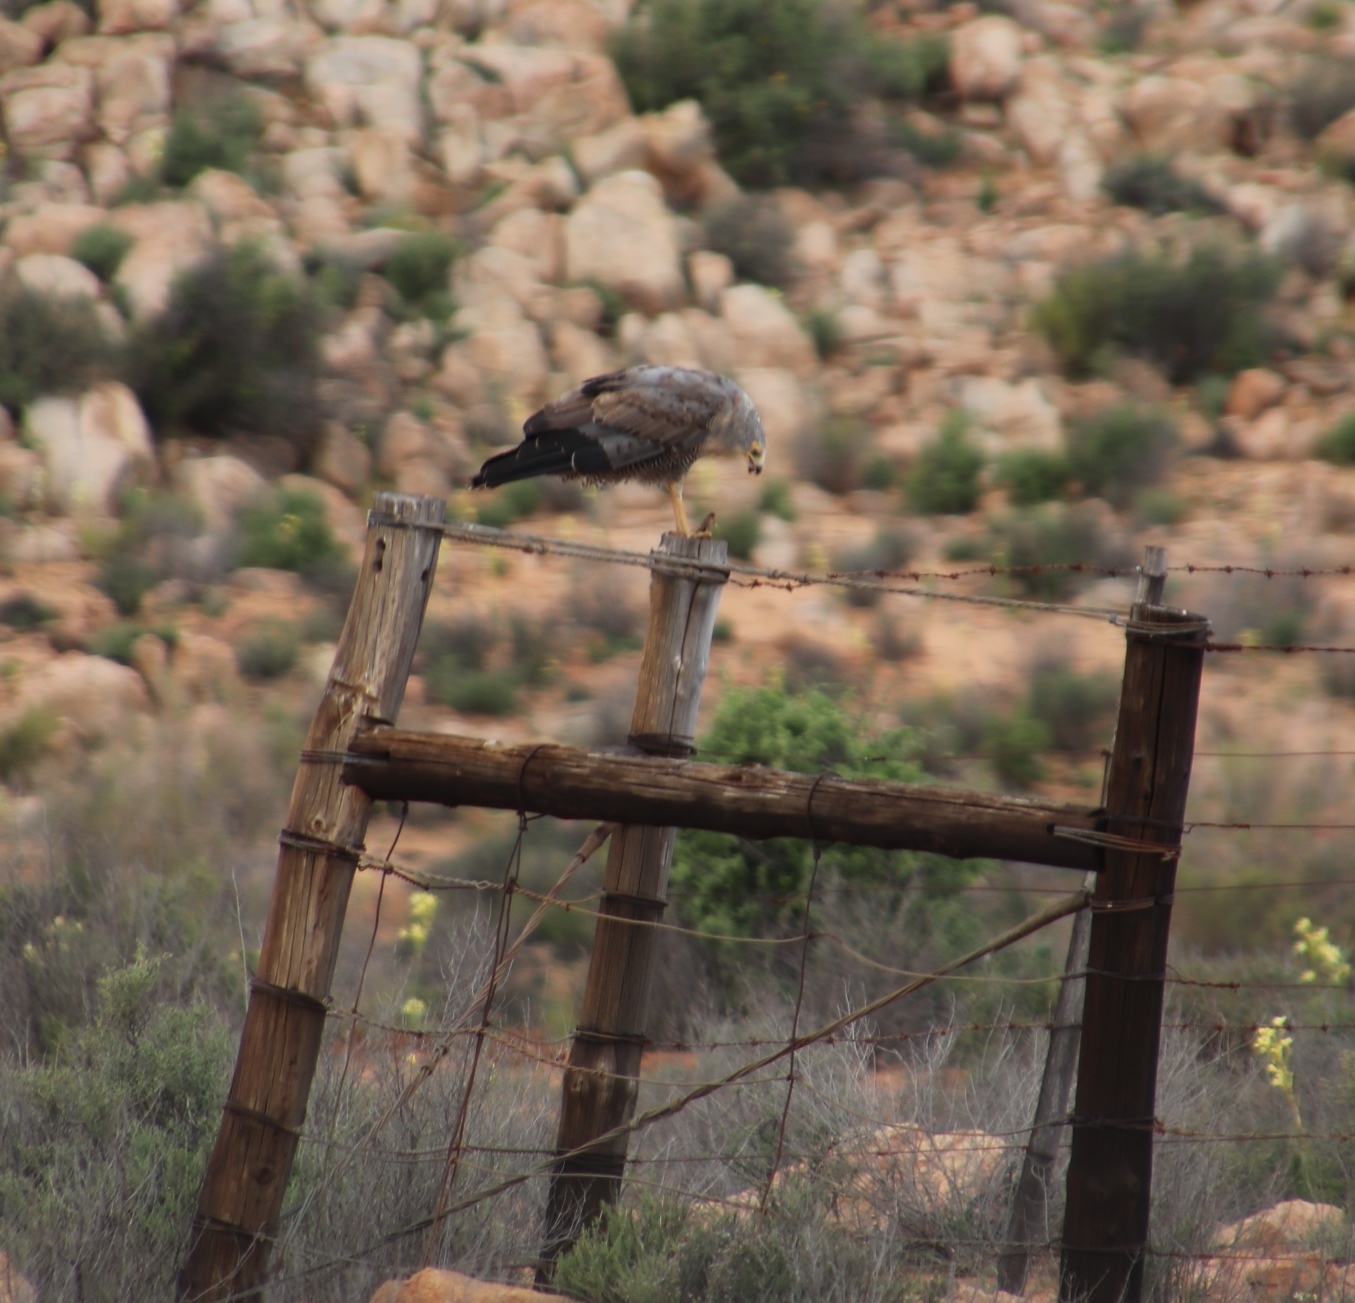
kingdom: Animalia
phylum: Chordata
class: Aves
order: Accipitriformes
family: Accipitridae
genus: Polyboroides
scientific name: Polyboroides typus
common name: African harrier-hawk
